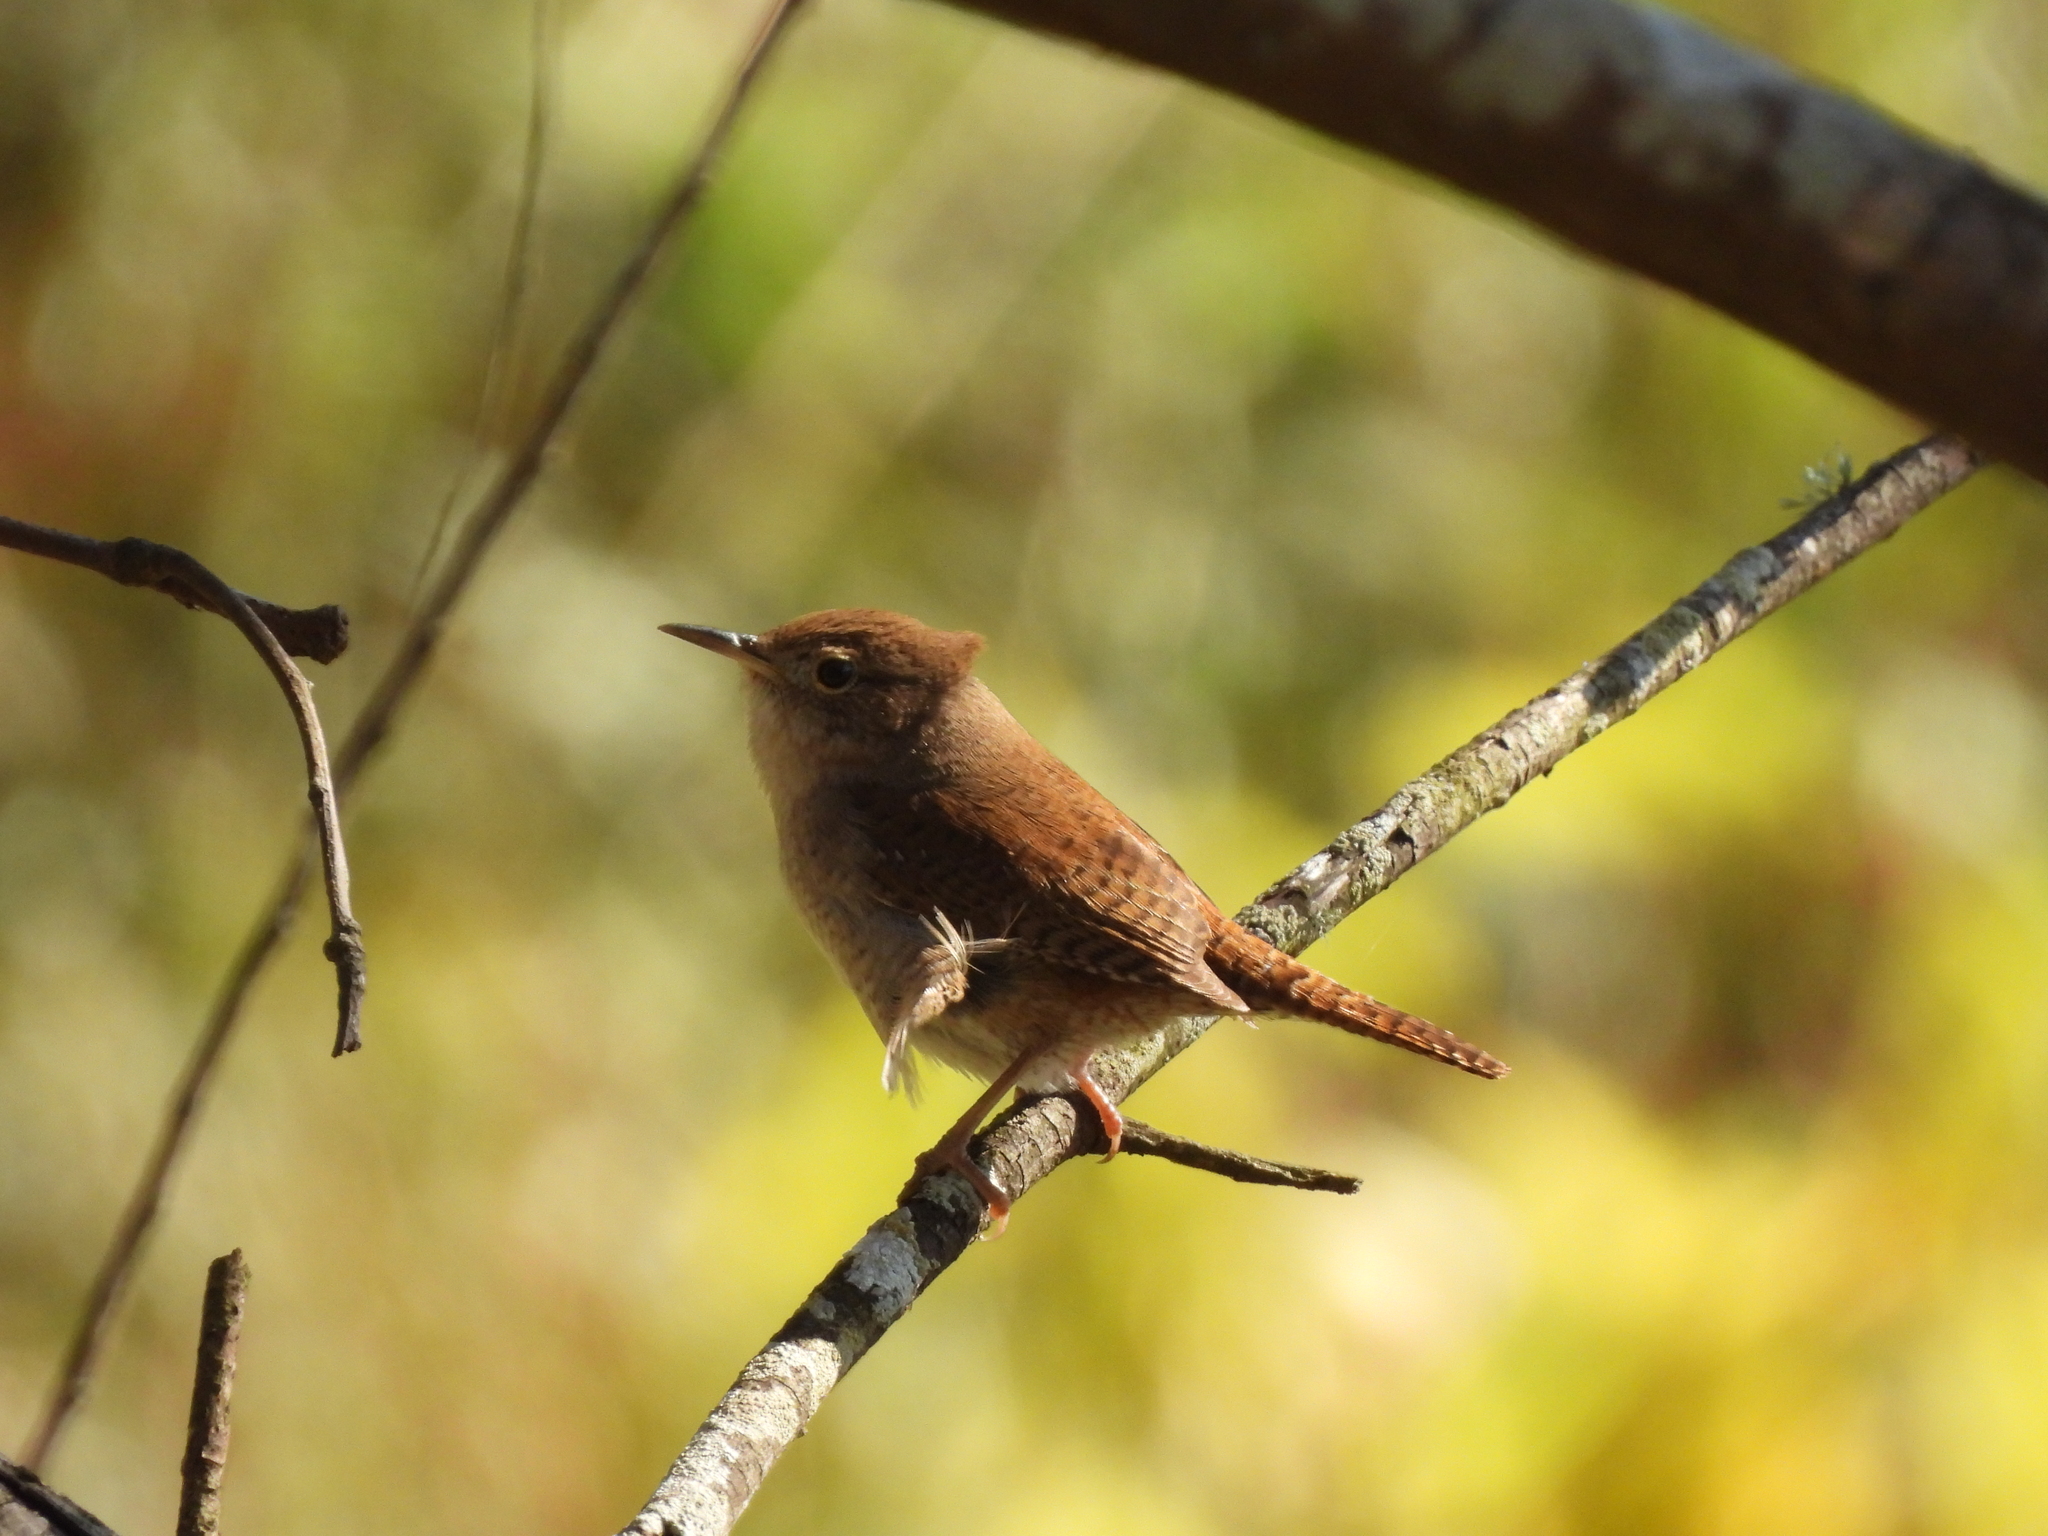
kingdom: Animalia
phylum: Chordata
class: Aves
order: Passeriformes
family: Troglodytidae
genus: Troglodytes
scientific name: Troglodytes aedon
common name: House wren
